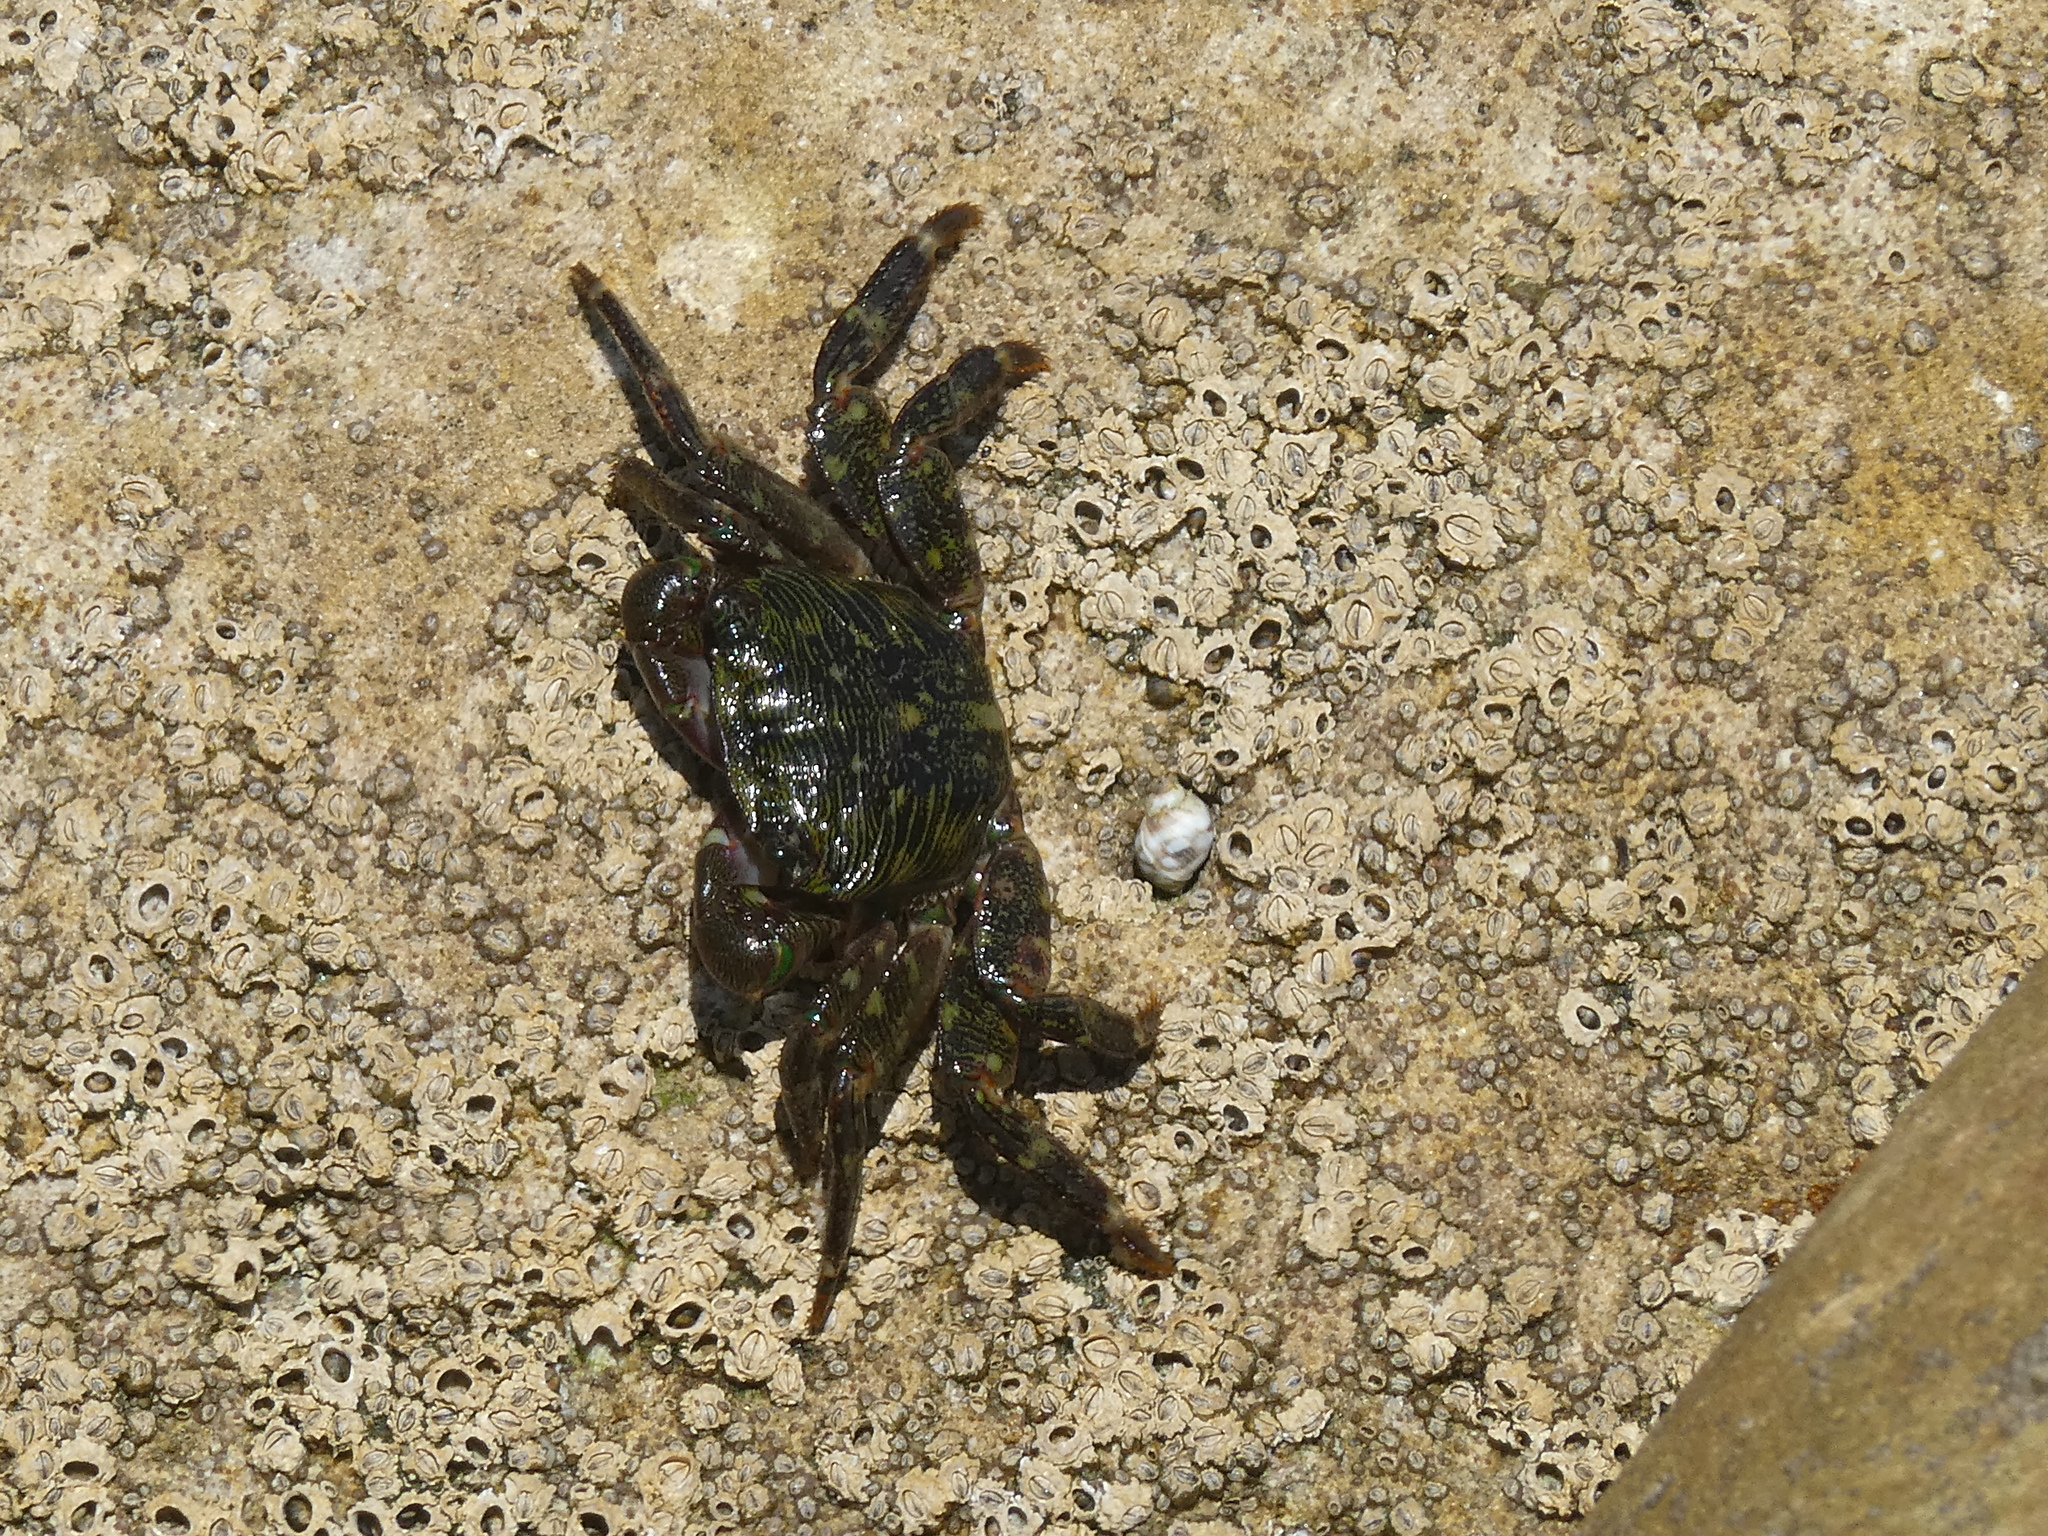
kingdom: Animalia
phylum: Arthropoda
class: Malacostraca
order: Decapoda
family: Grapsidae
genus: Pachygrapsus
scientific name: Pachygrapsus crassipes
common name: Striped shore crab
